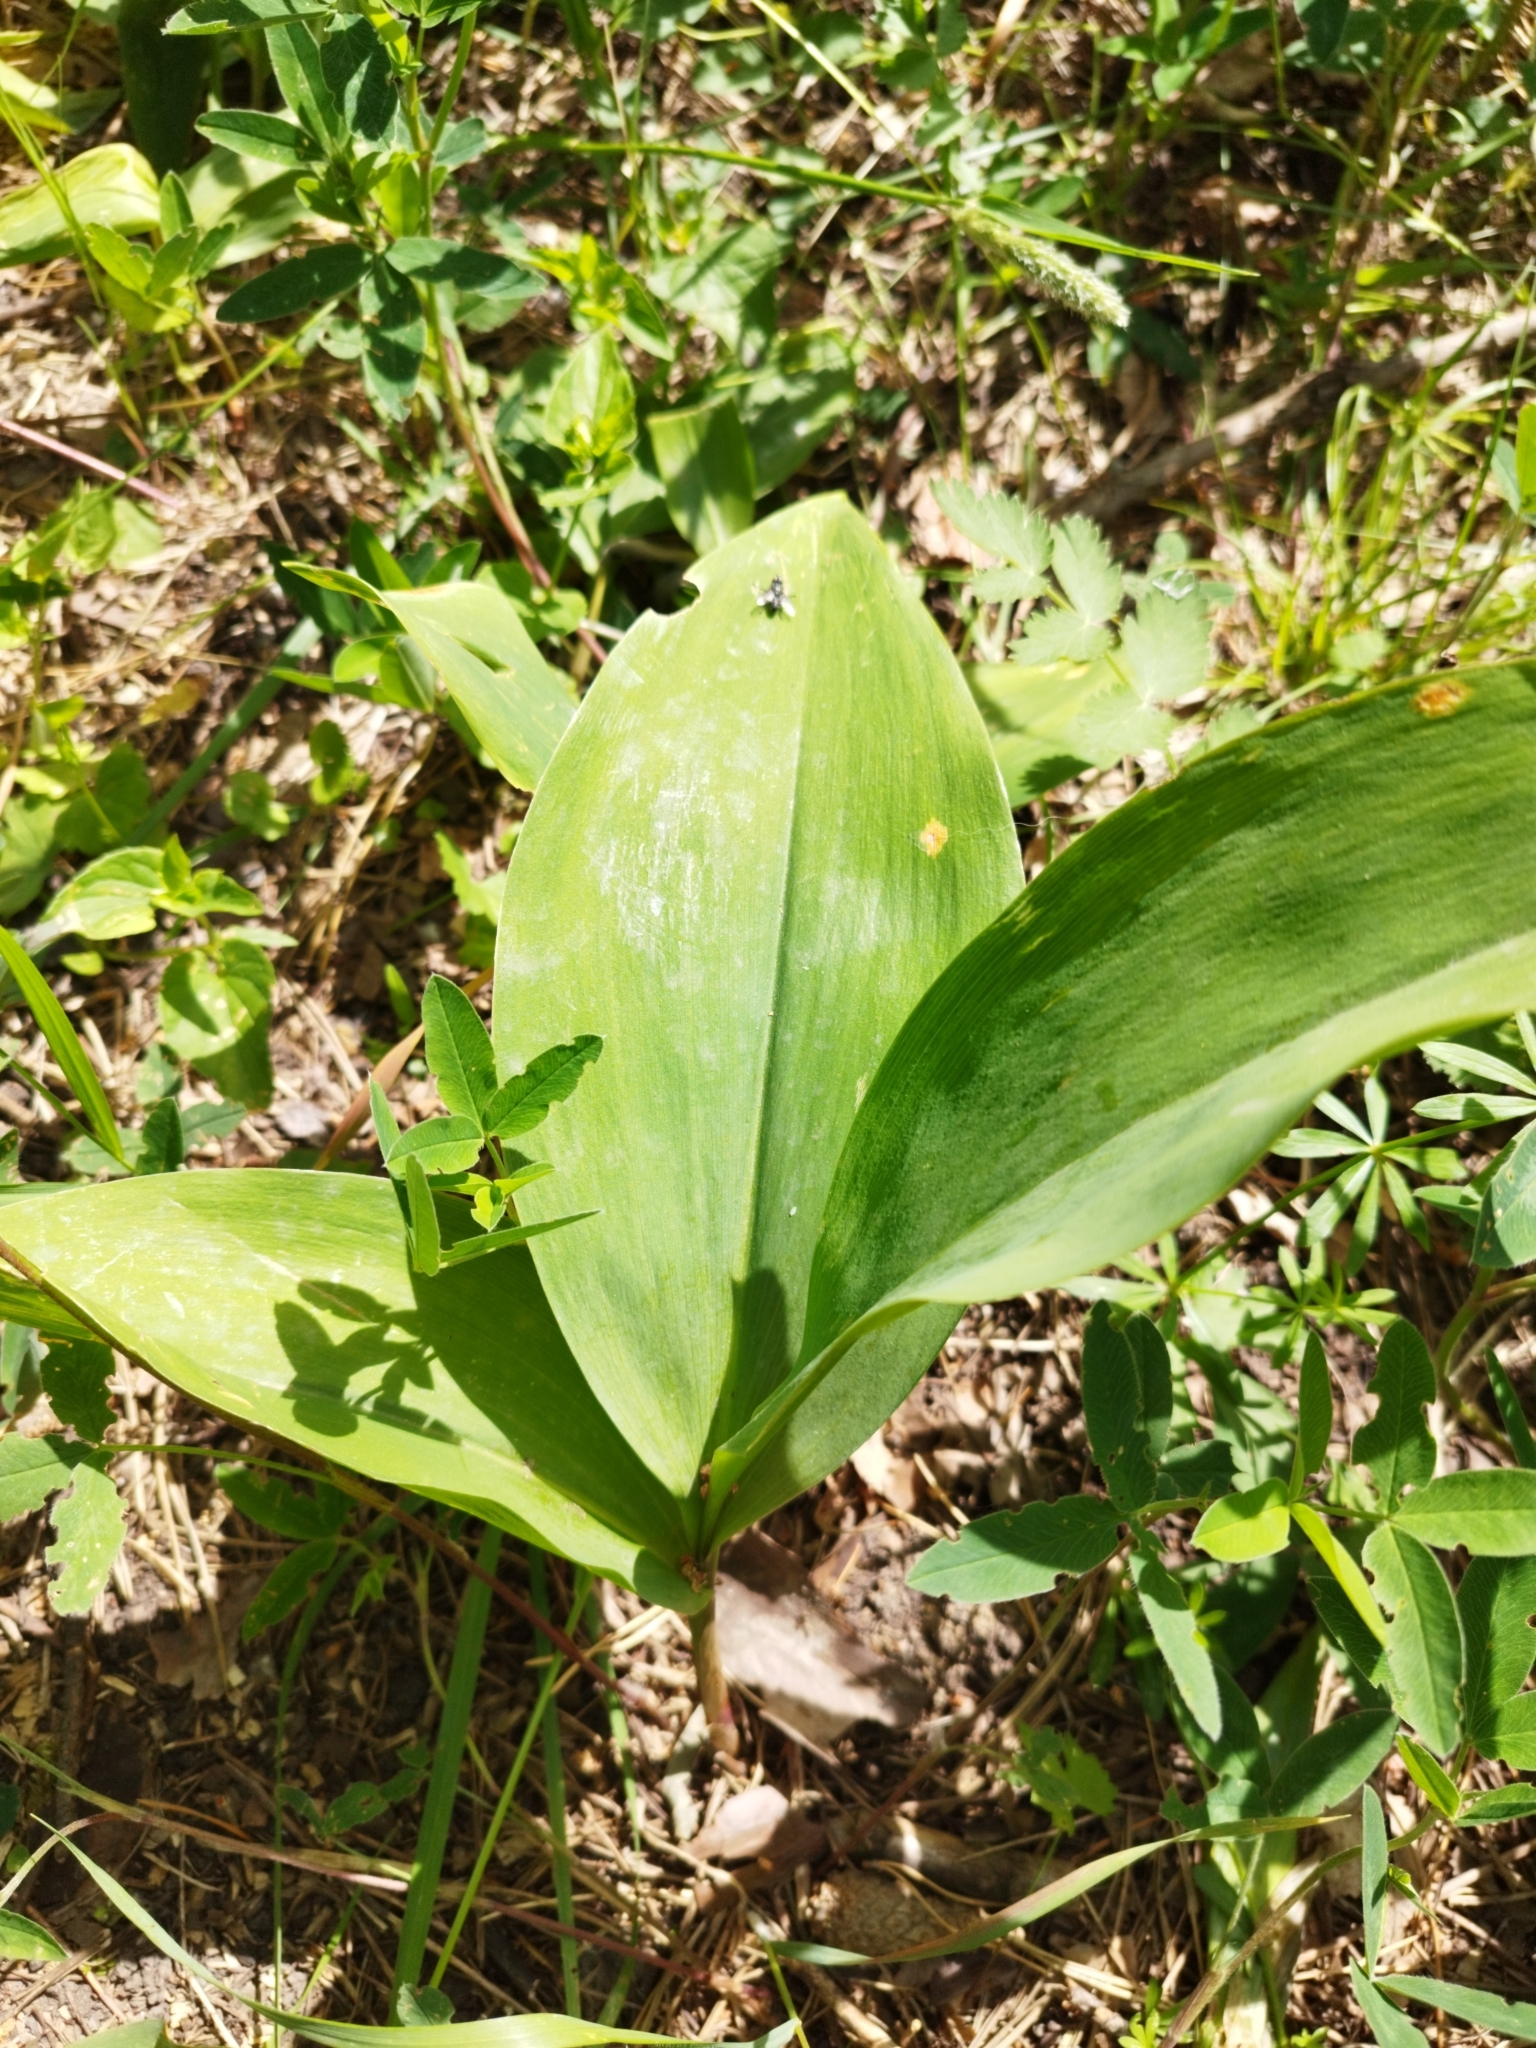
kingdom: Plantae
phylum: Tracheophyta
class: Liliopsida
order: Asparagales
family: Asparagaceae
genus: Convallaria
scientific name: Convallaria majalis
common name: Lily-of-the-valley
